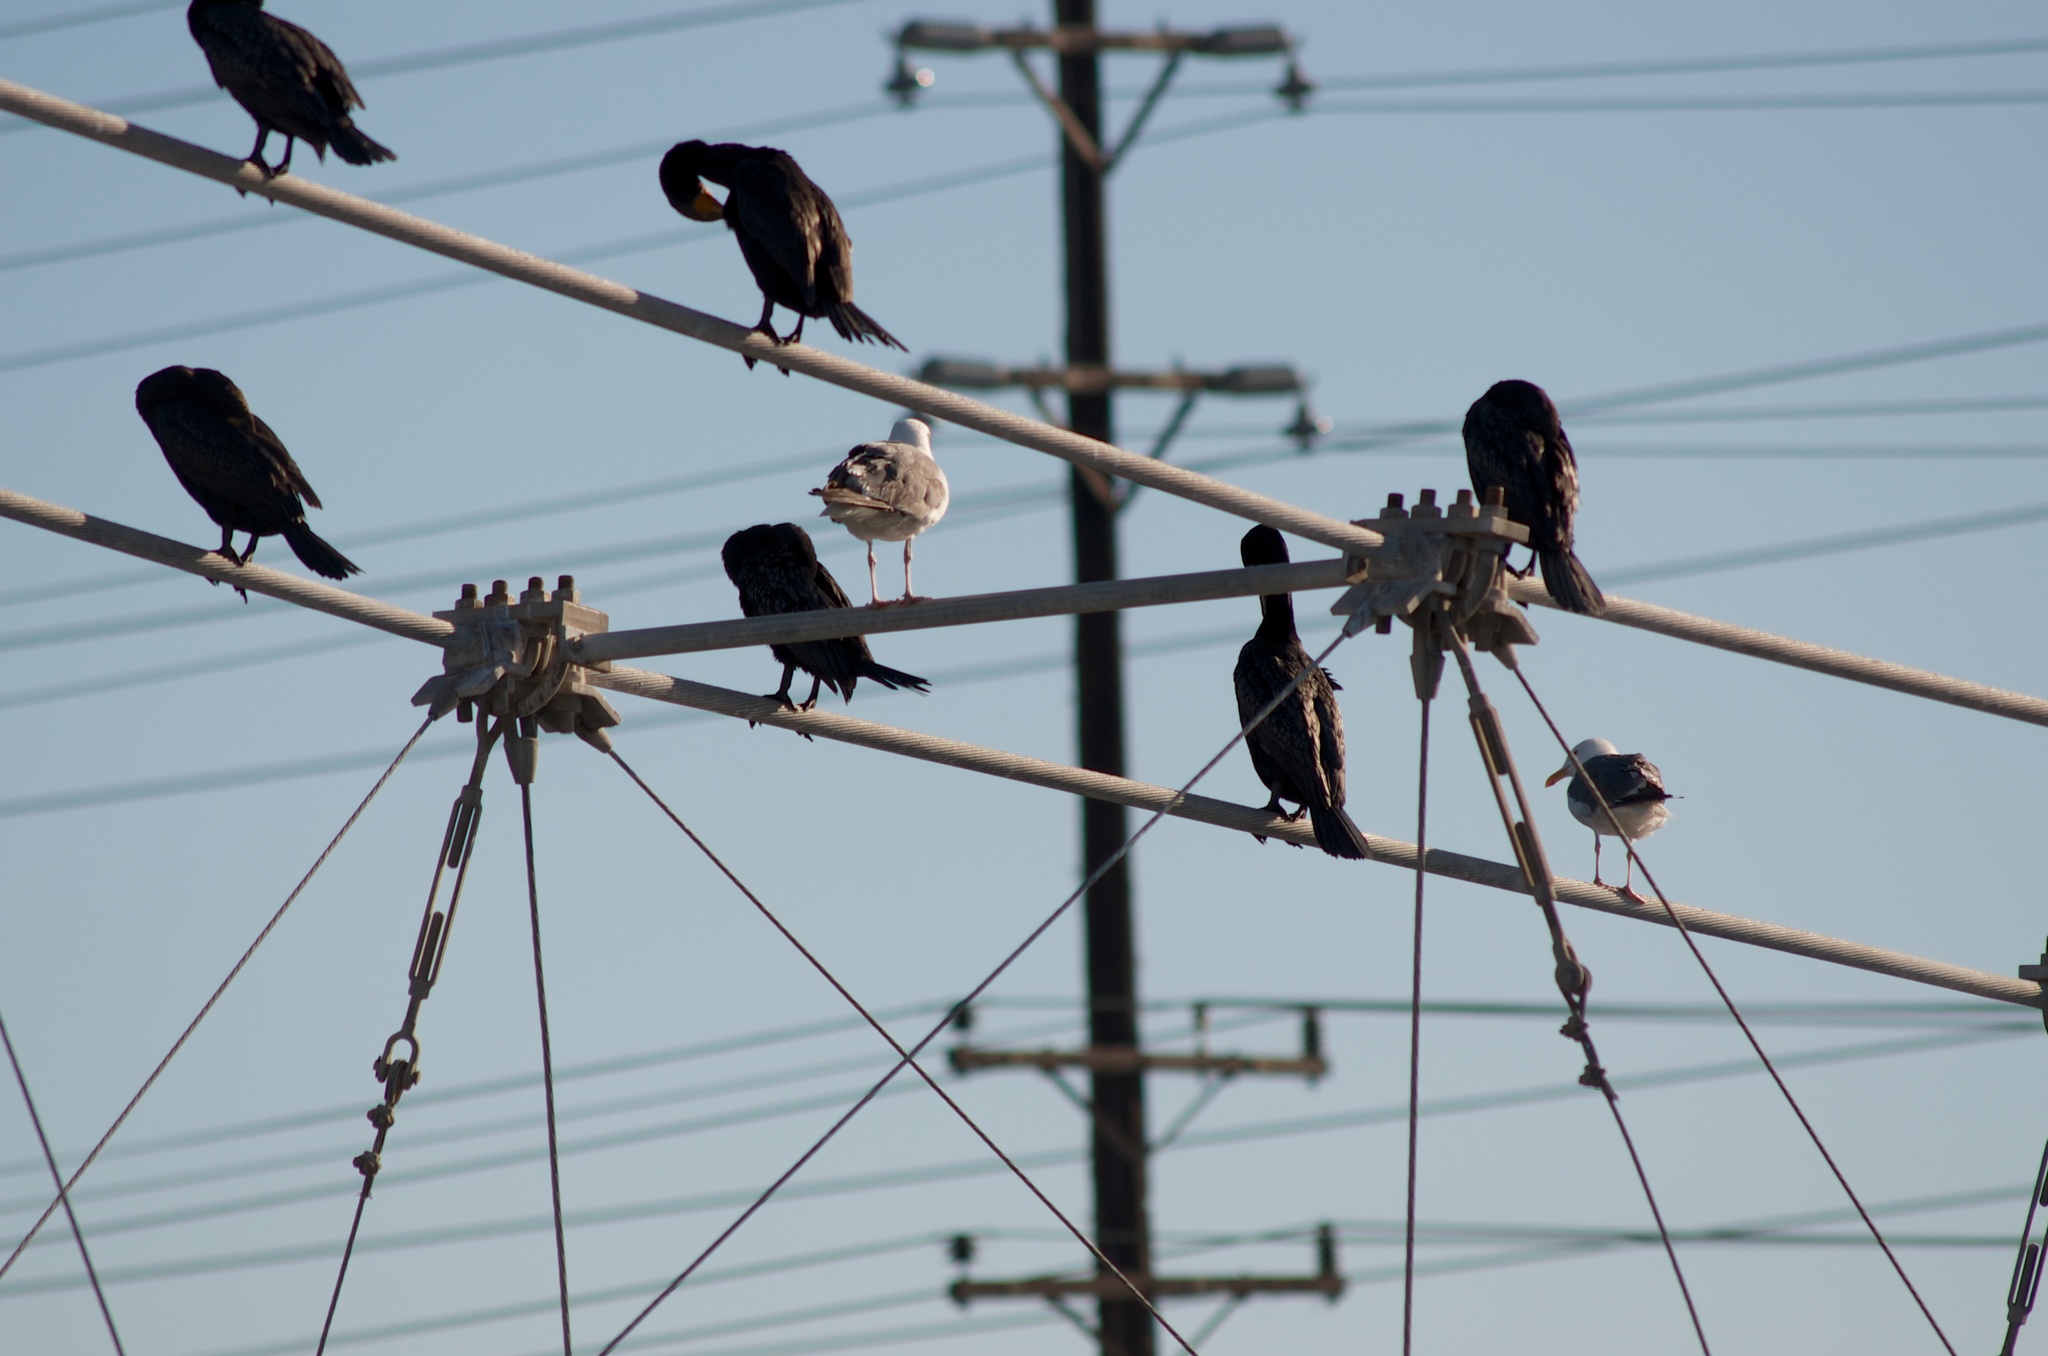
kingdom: Animalia
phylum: Chordata
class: Aves
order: Suliformes
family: Phalacrocoracidae
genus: Phalacrocorax
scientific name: Phalacrocorax auritus
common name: Double-crested cormorant
